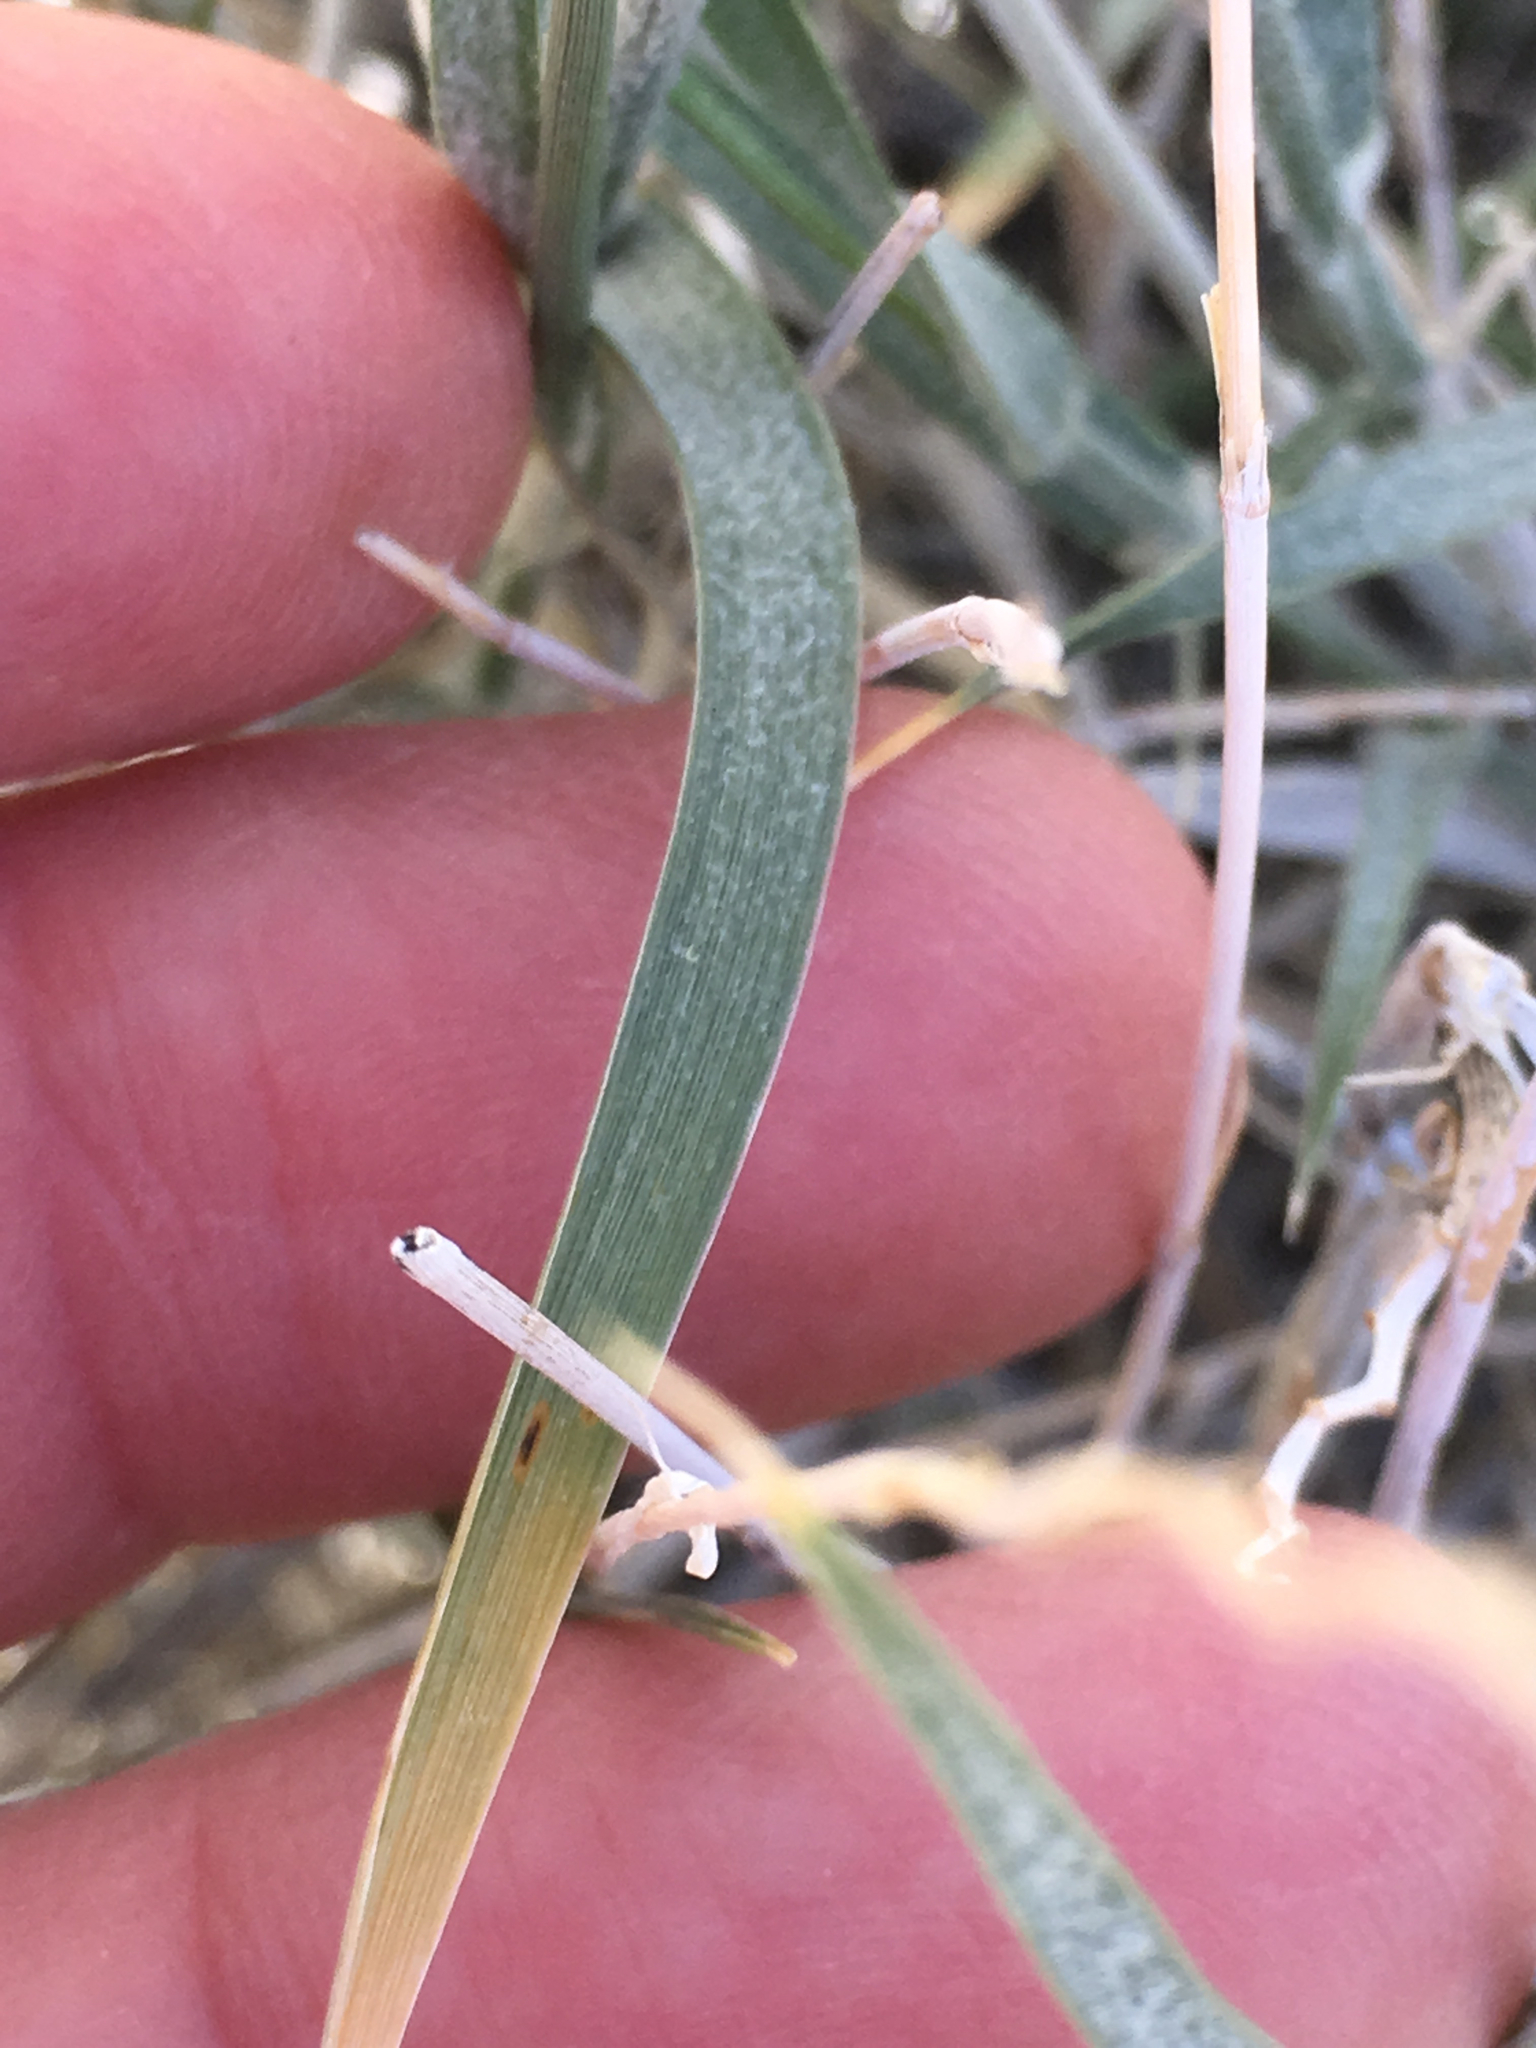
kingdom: Plantae
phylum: Tracheophyta
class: Liliopsida
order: Poales
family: Poaceae
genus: Hilaria
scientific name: Hilaria rigida
